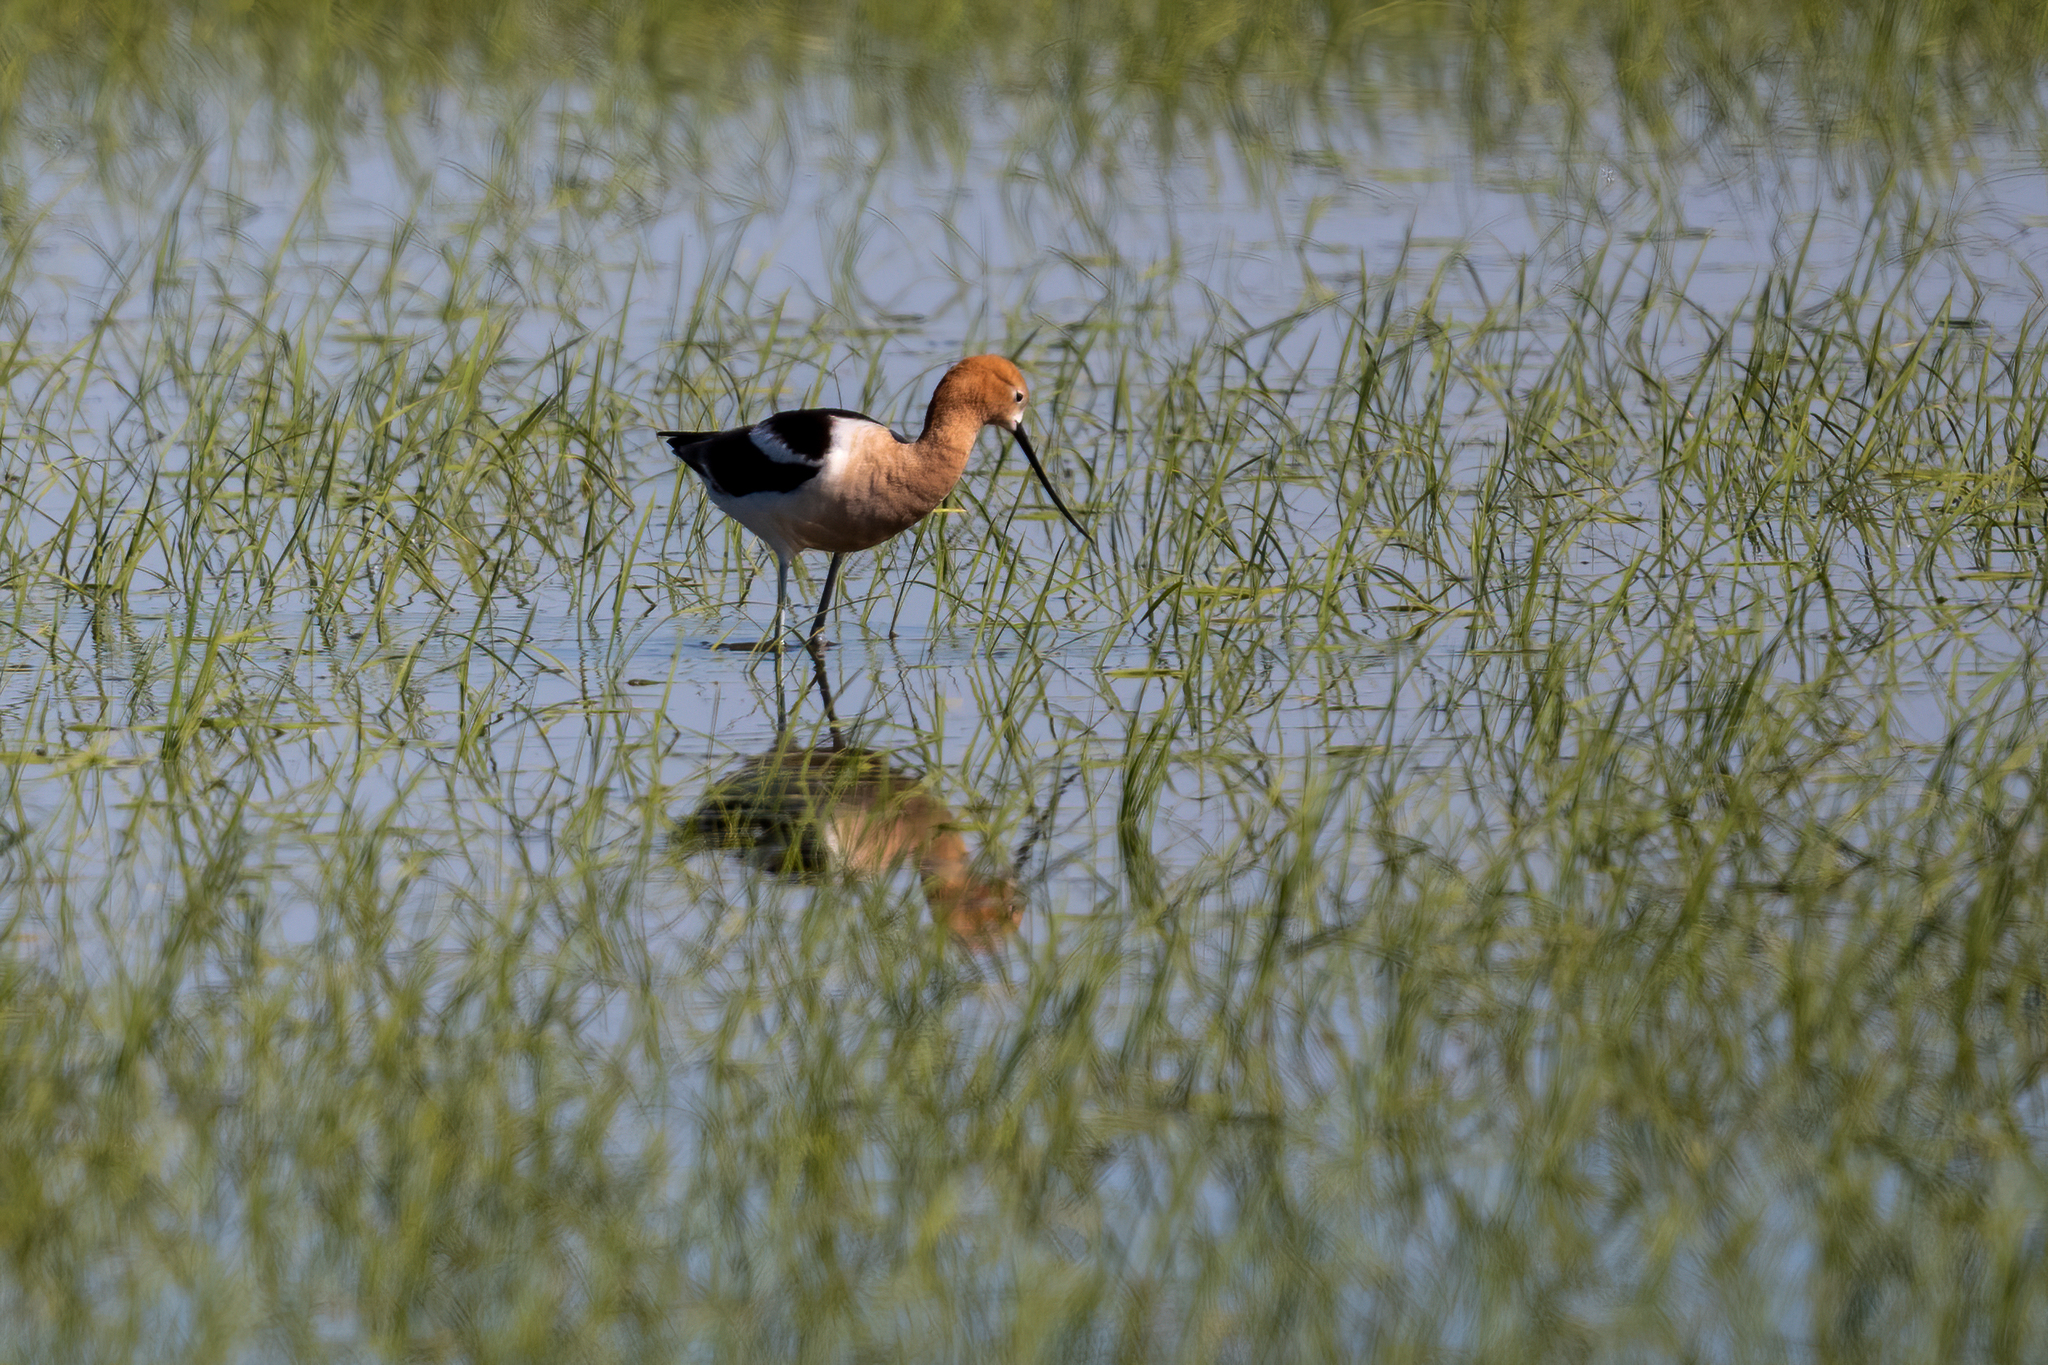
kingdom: Animalia
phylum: Chordata
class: Aves
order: Charadriiformes
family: Recurvirostridae
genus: Recurvirostra
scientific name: Recurvirostra americana
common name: American avocet
